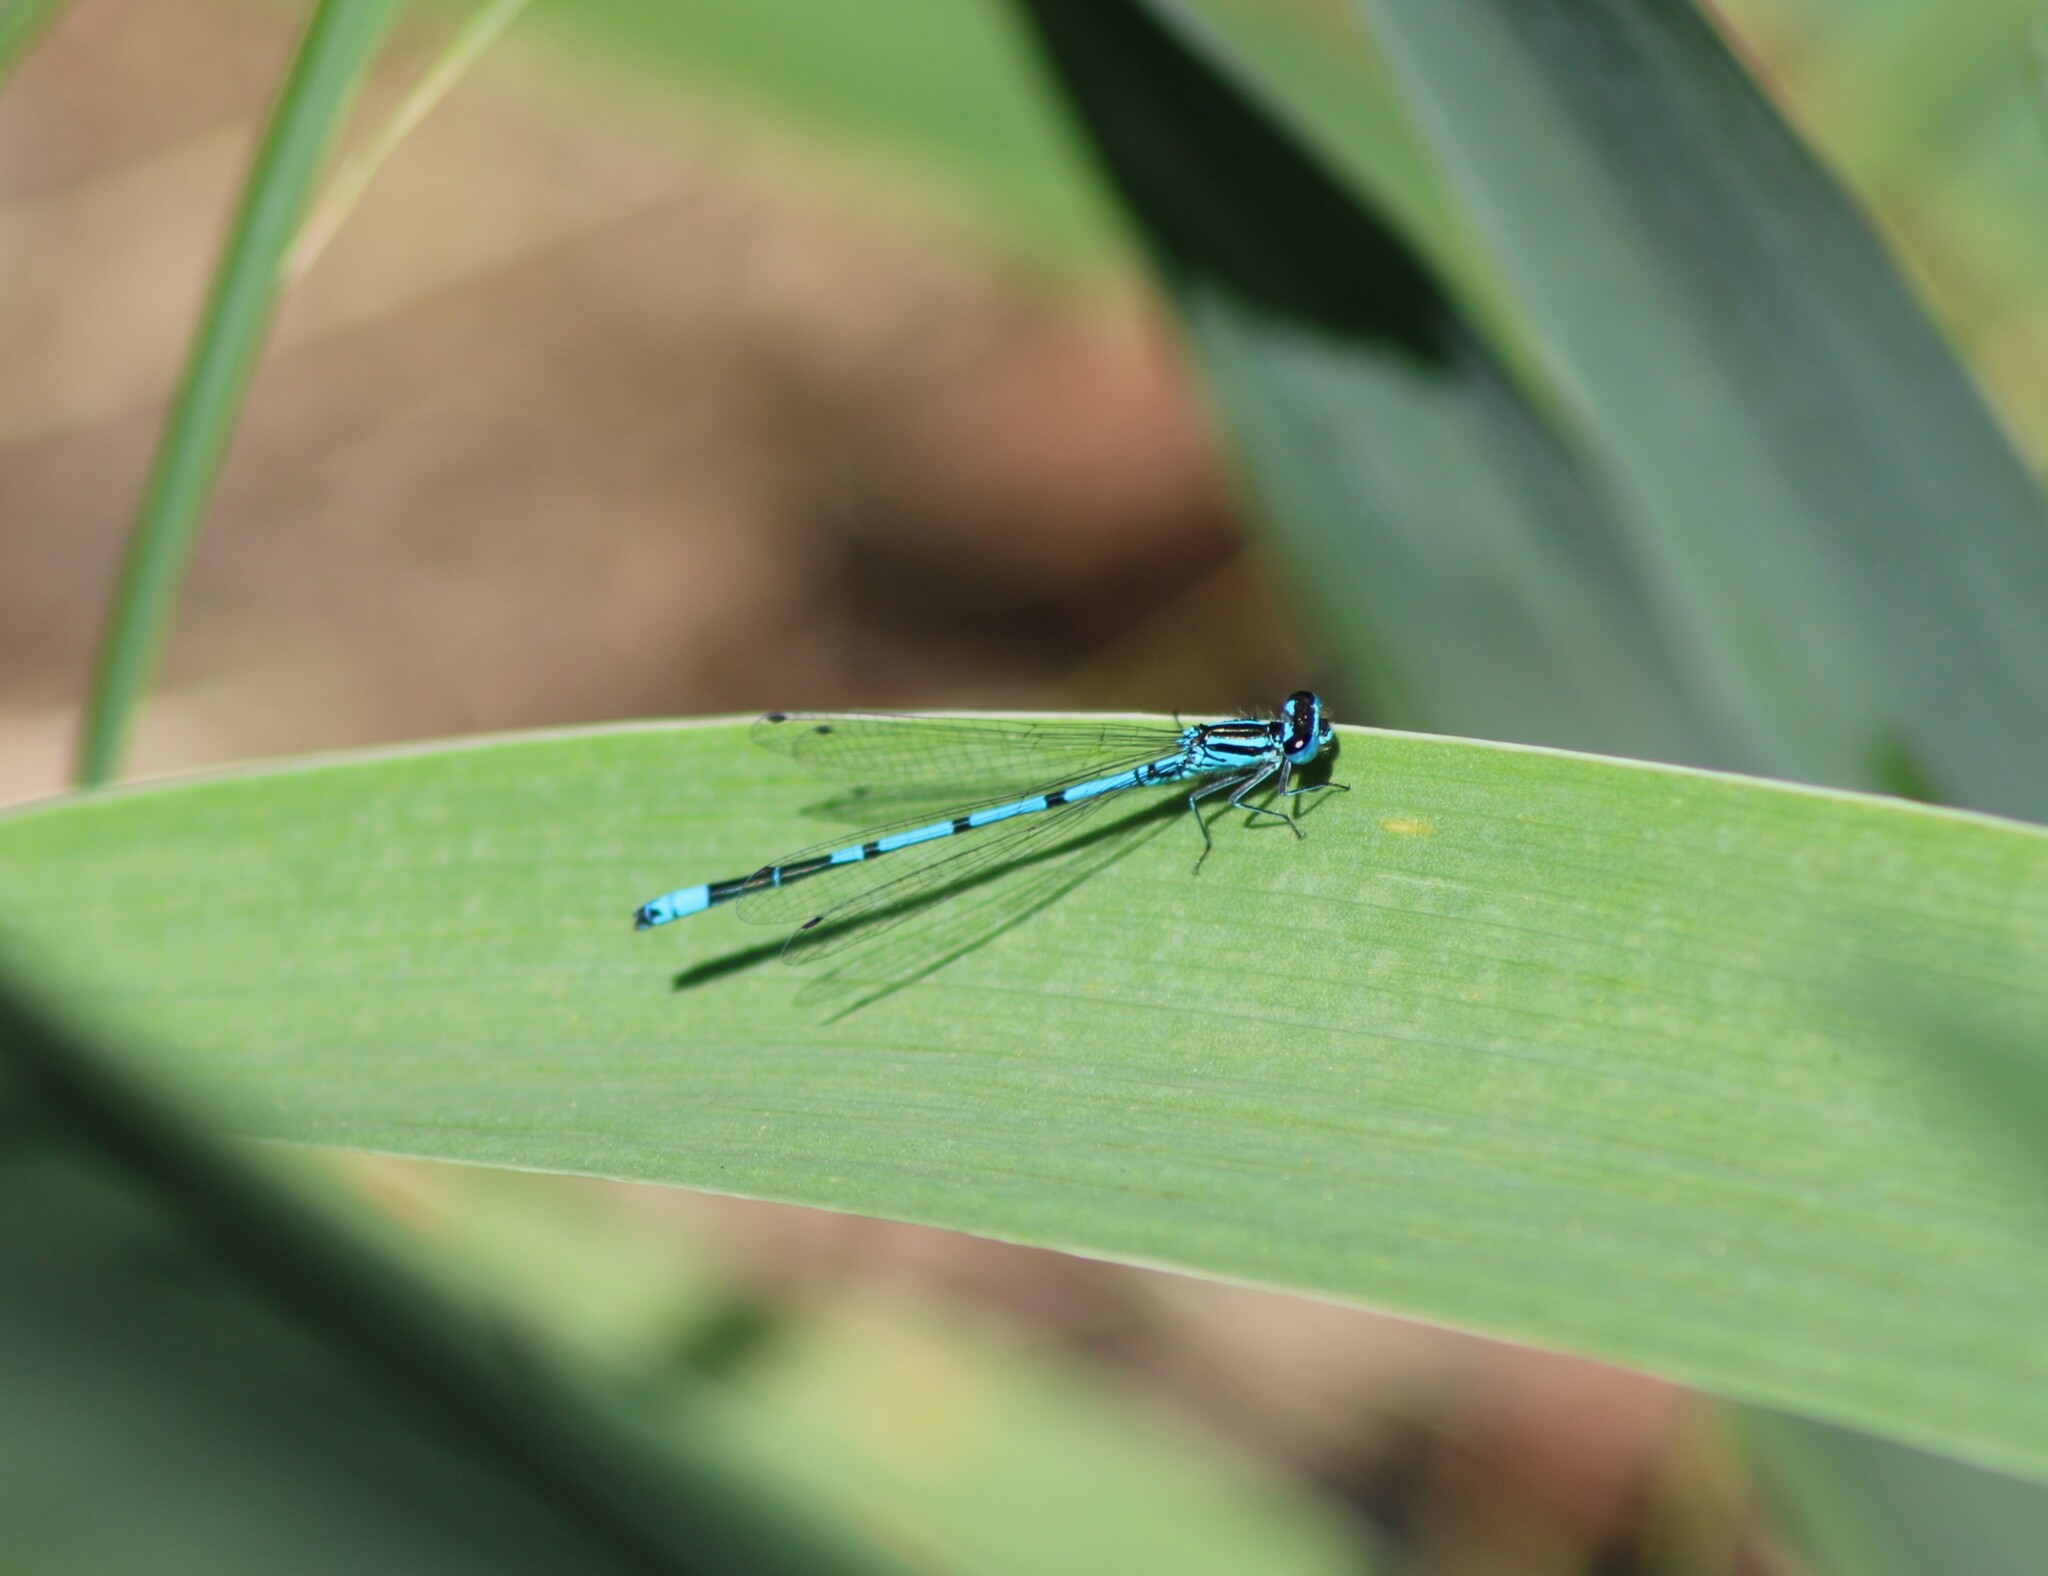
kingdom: Animalia
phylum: Arthropoda
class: Insecta
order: Odonata
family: Coenagrionidae
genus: Coenagrion
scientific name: Coenagrion puella
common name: Azure damselfly
